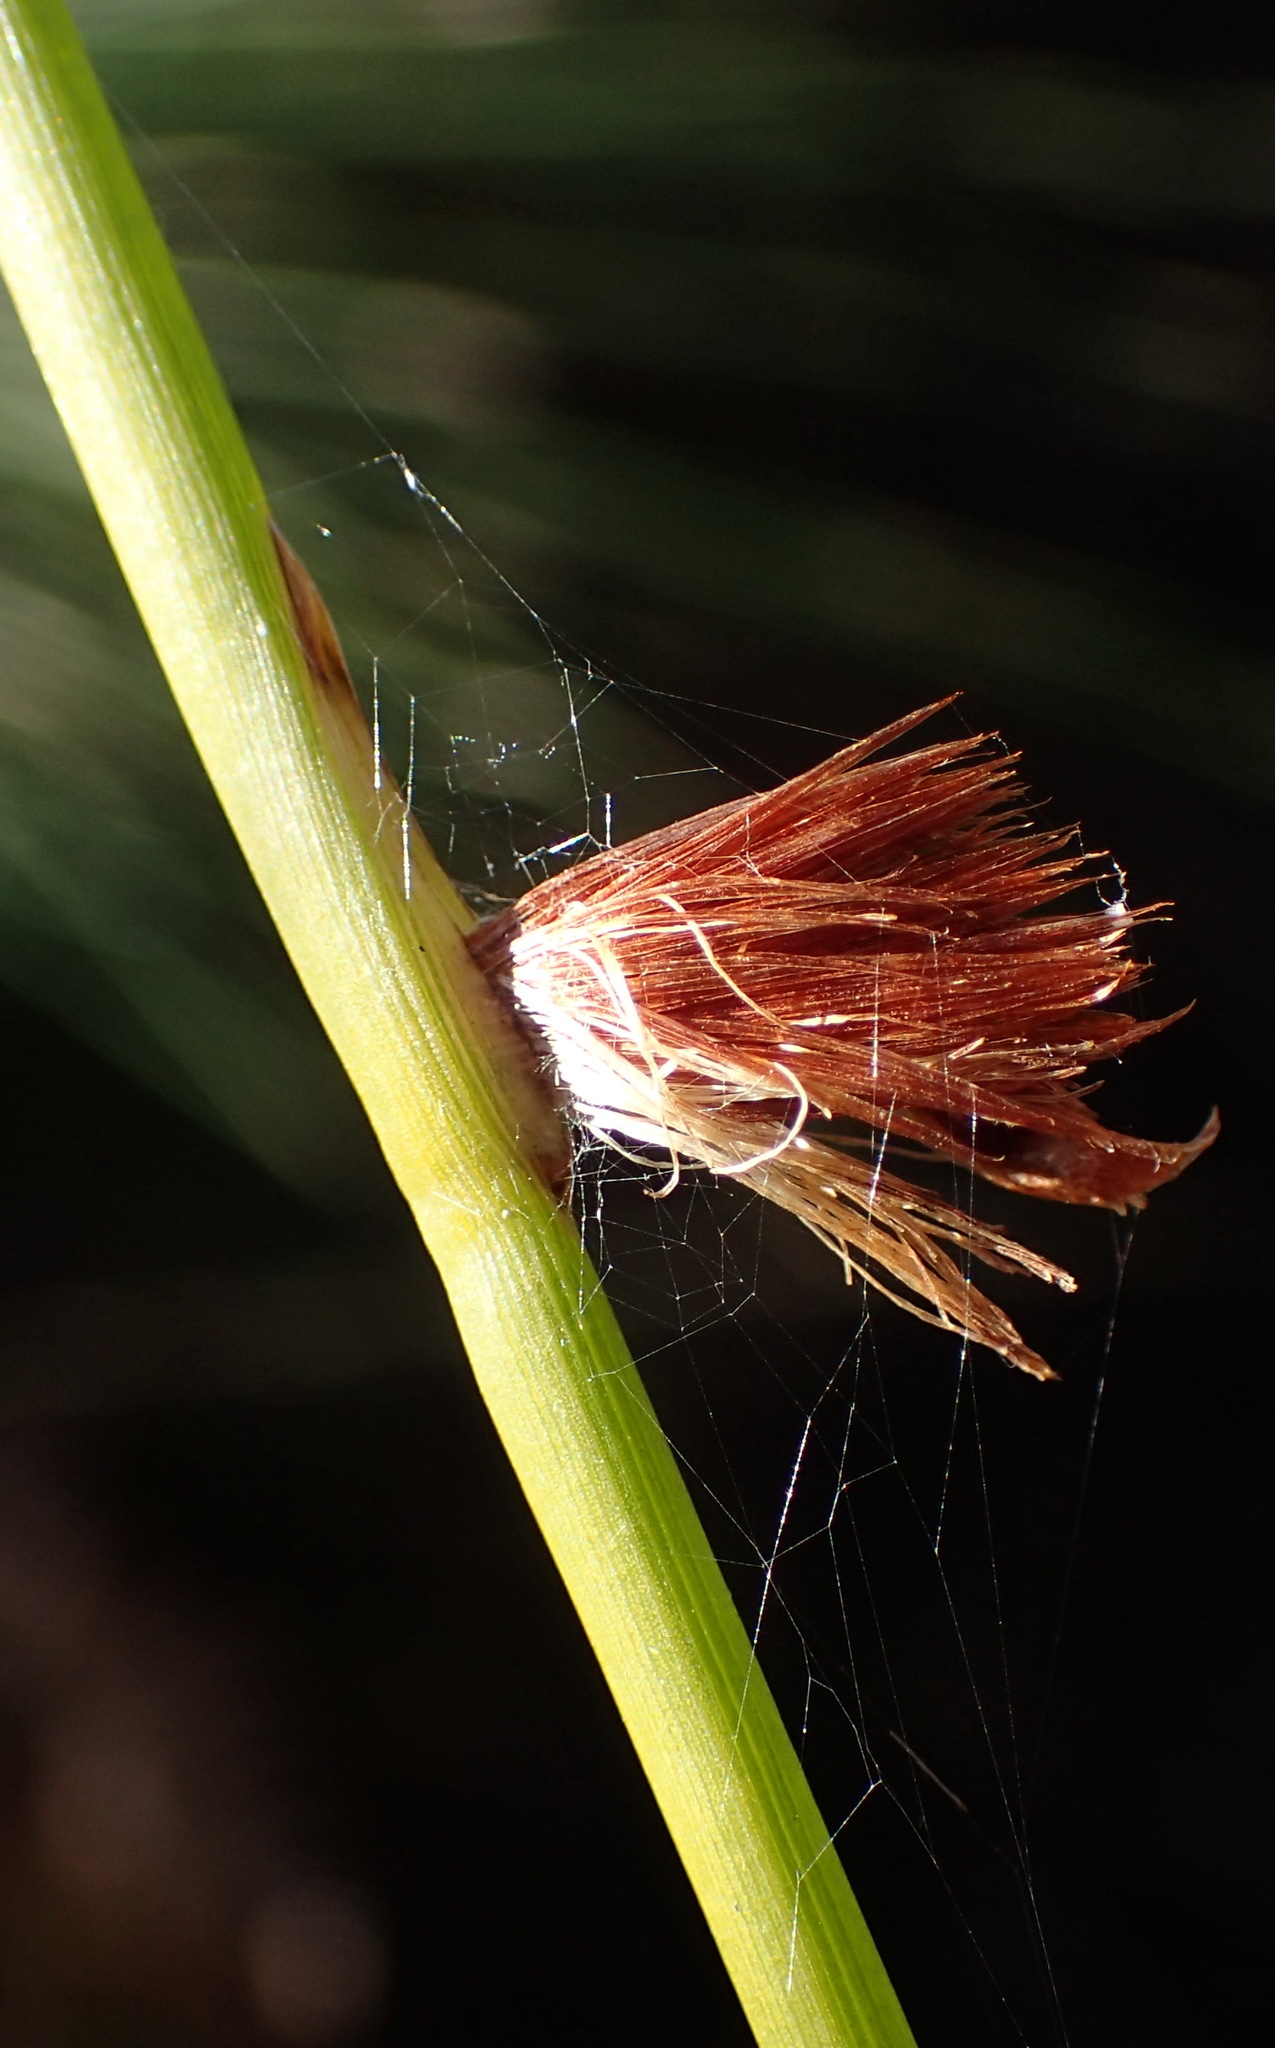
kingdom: Plantae
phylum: Tracheophyta
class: Liliopsida
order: Poales
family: Cyperaceae
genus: Chrysitrix
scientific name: Chrysitrix capensis
